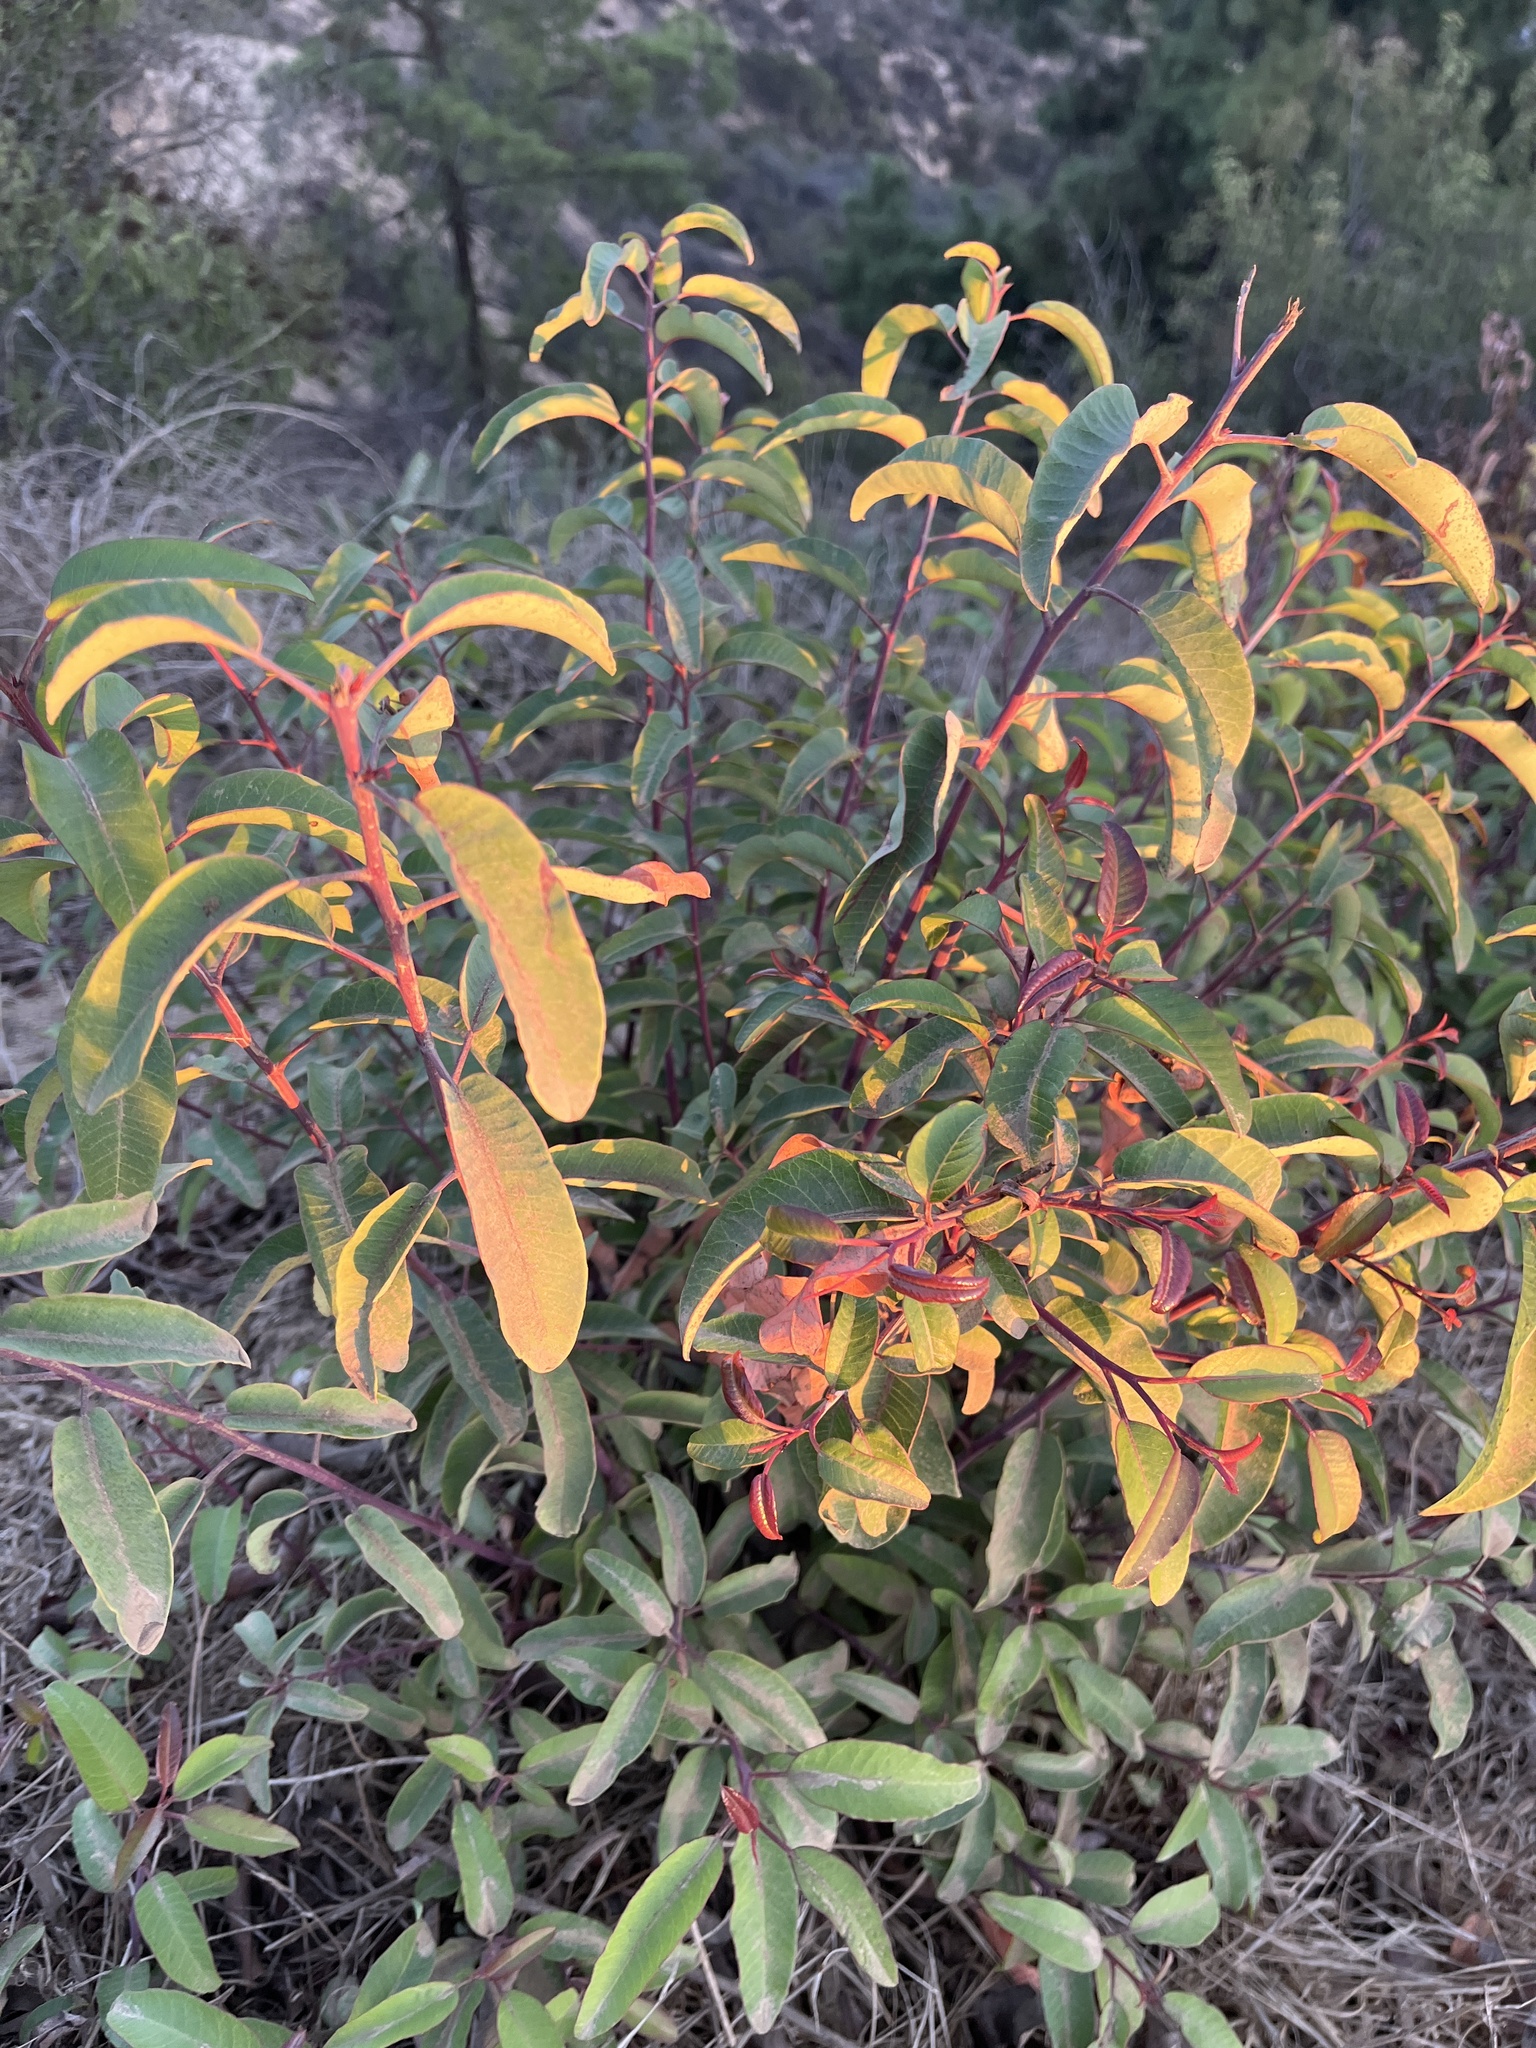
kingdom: Plantae
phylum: Tracheophyta
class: Magnoliopsida
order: Sapindales
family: Anacardiaceae
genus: Malosma
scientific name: Malosma laurina
